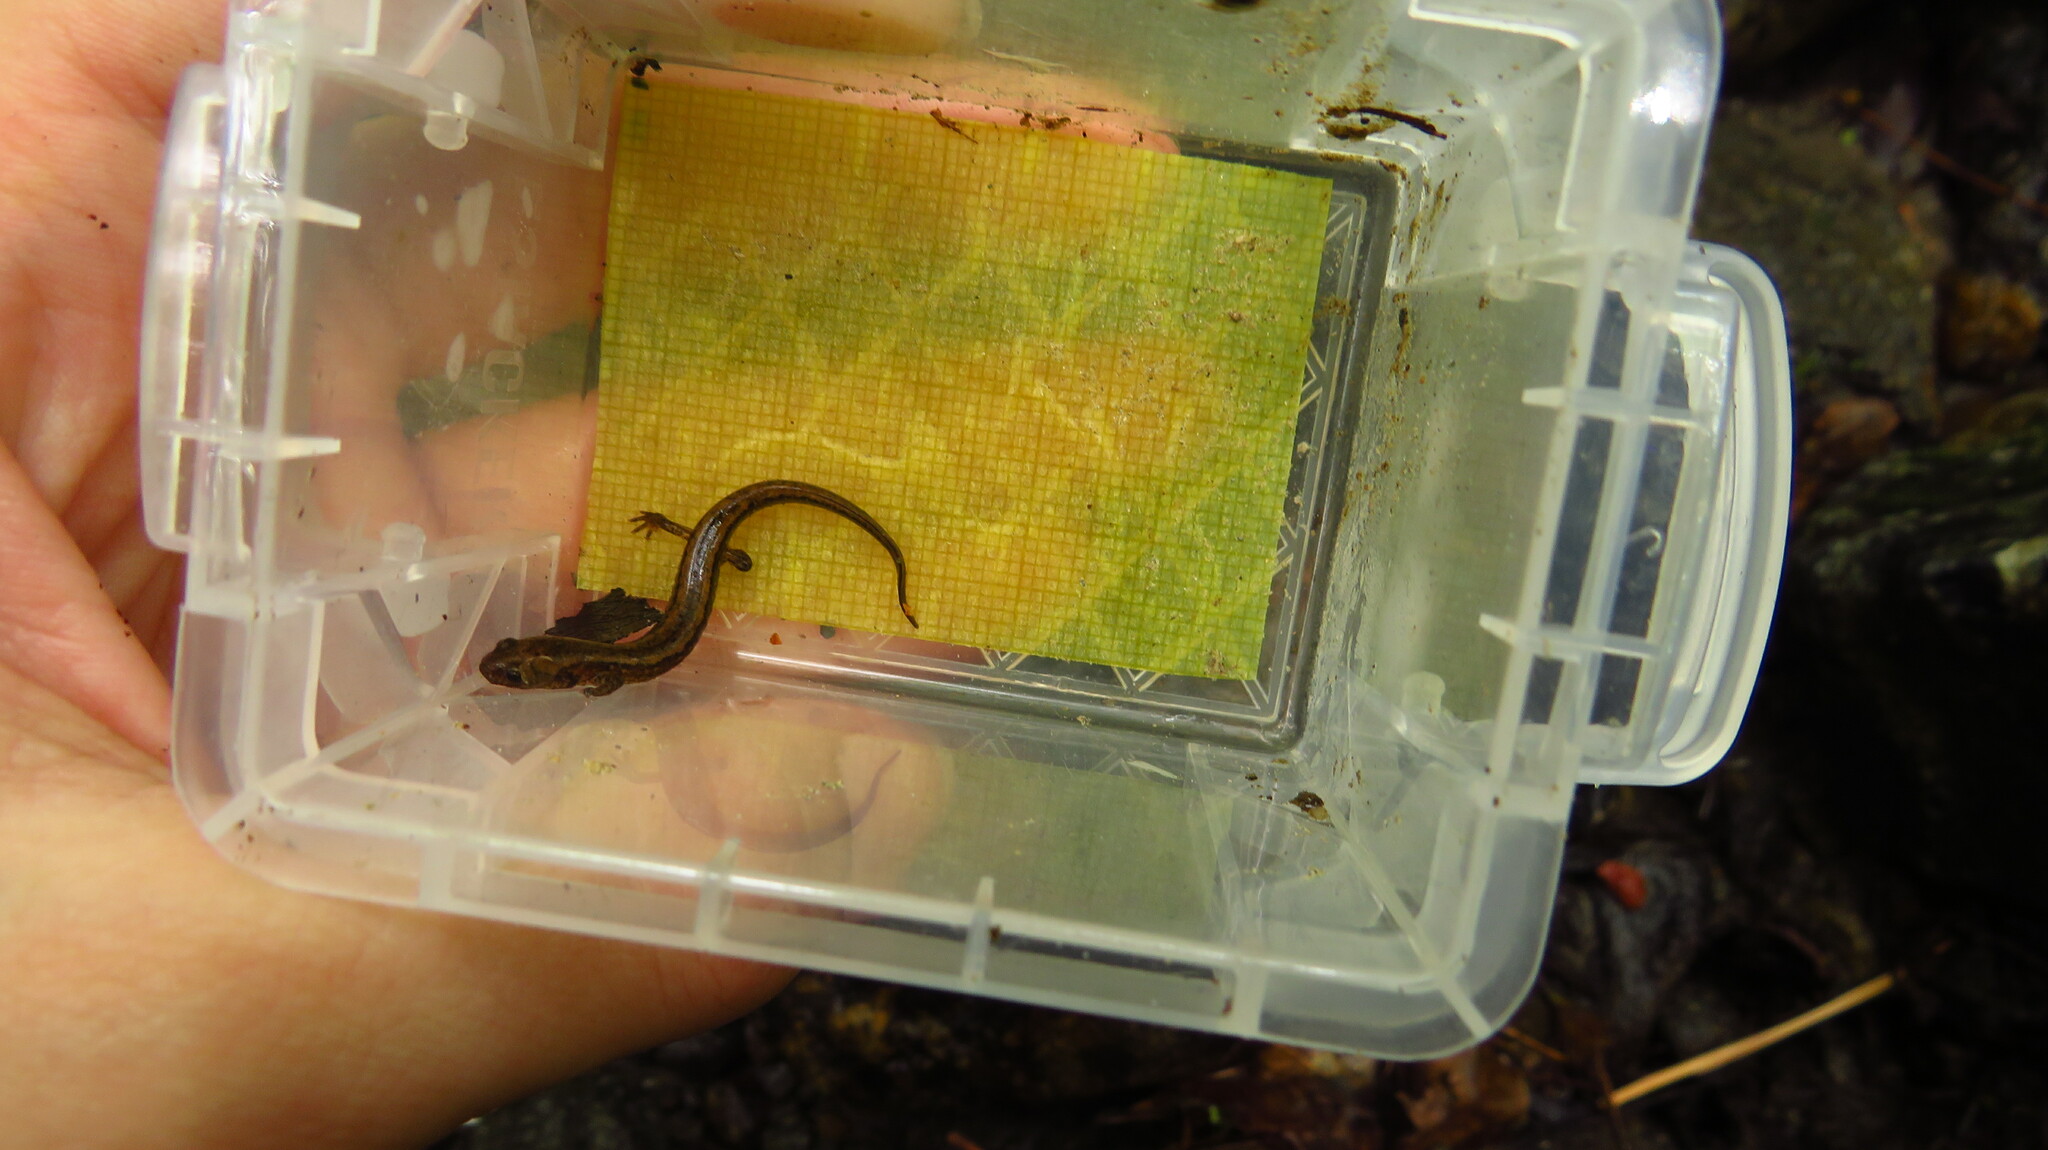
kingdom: Animalia
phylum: Chordata
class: Amphibia
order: Caudata
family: Plethodontidae
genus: Eurycea
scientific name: Eurycea bislineata
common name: Northern two-lined salamander
